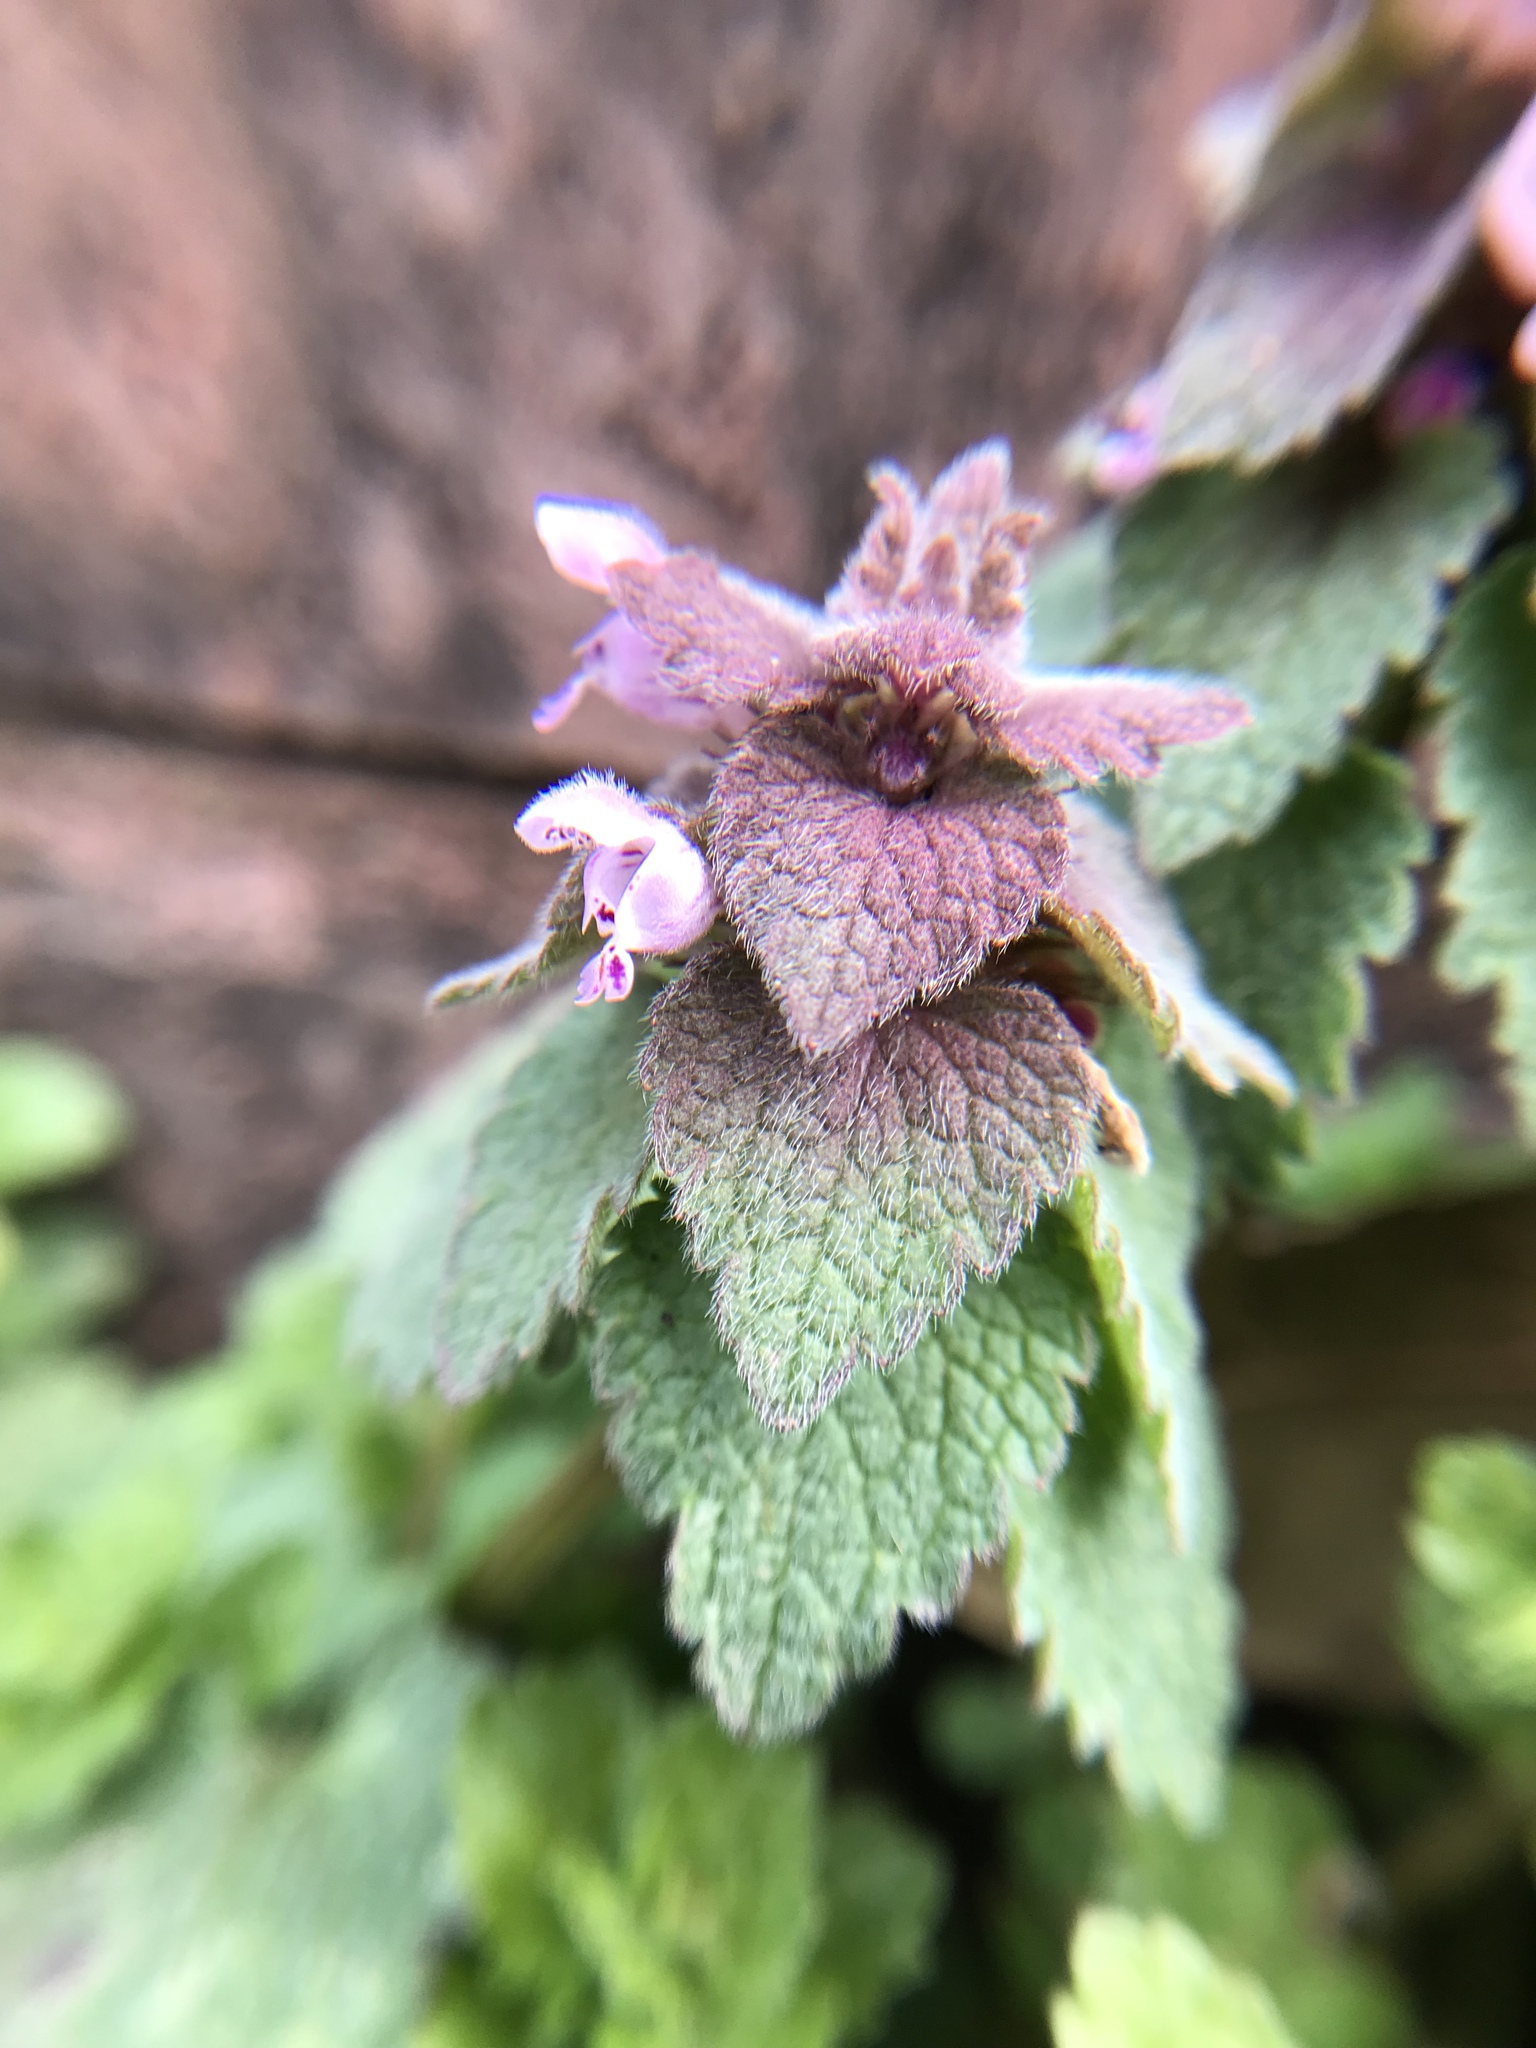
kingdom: Plantae
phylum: Tracheophyta
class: Magnoliopsida
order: Lamiales
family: Lamiaceae
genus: Lamium
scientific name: Lamium purpureum
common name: Red dead-nettle
